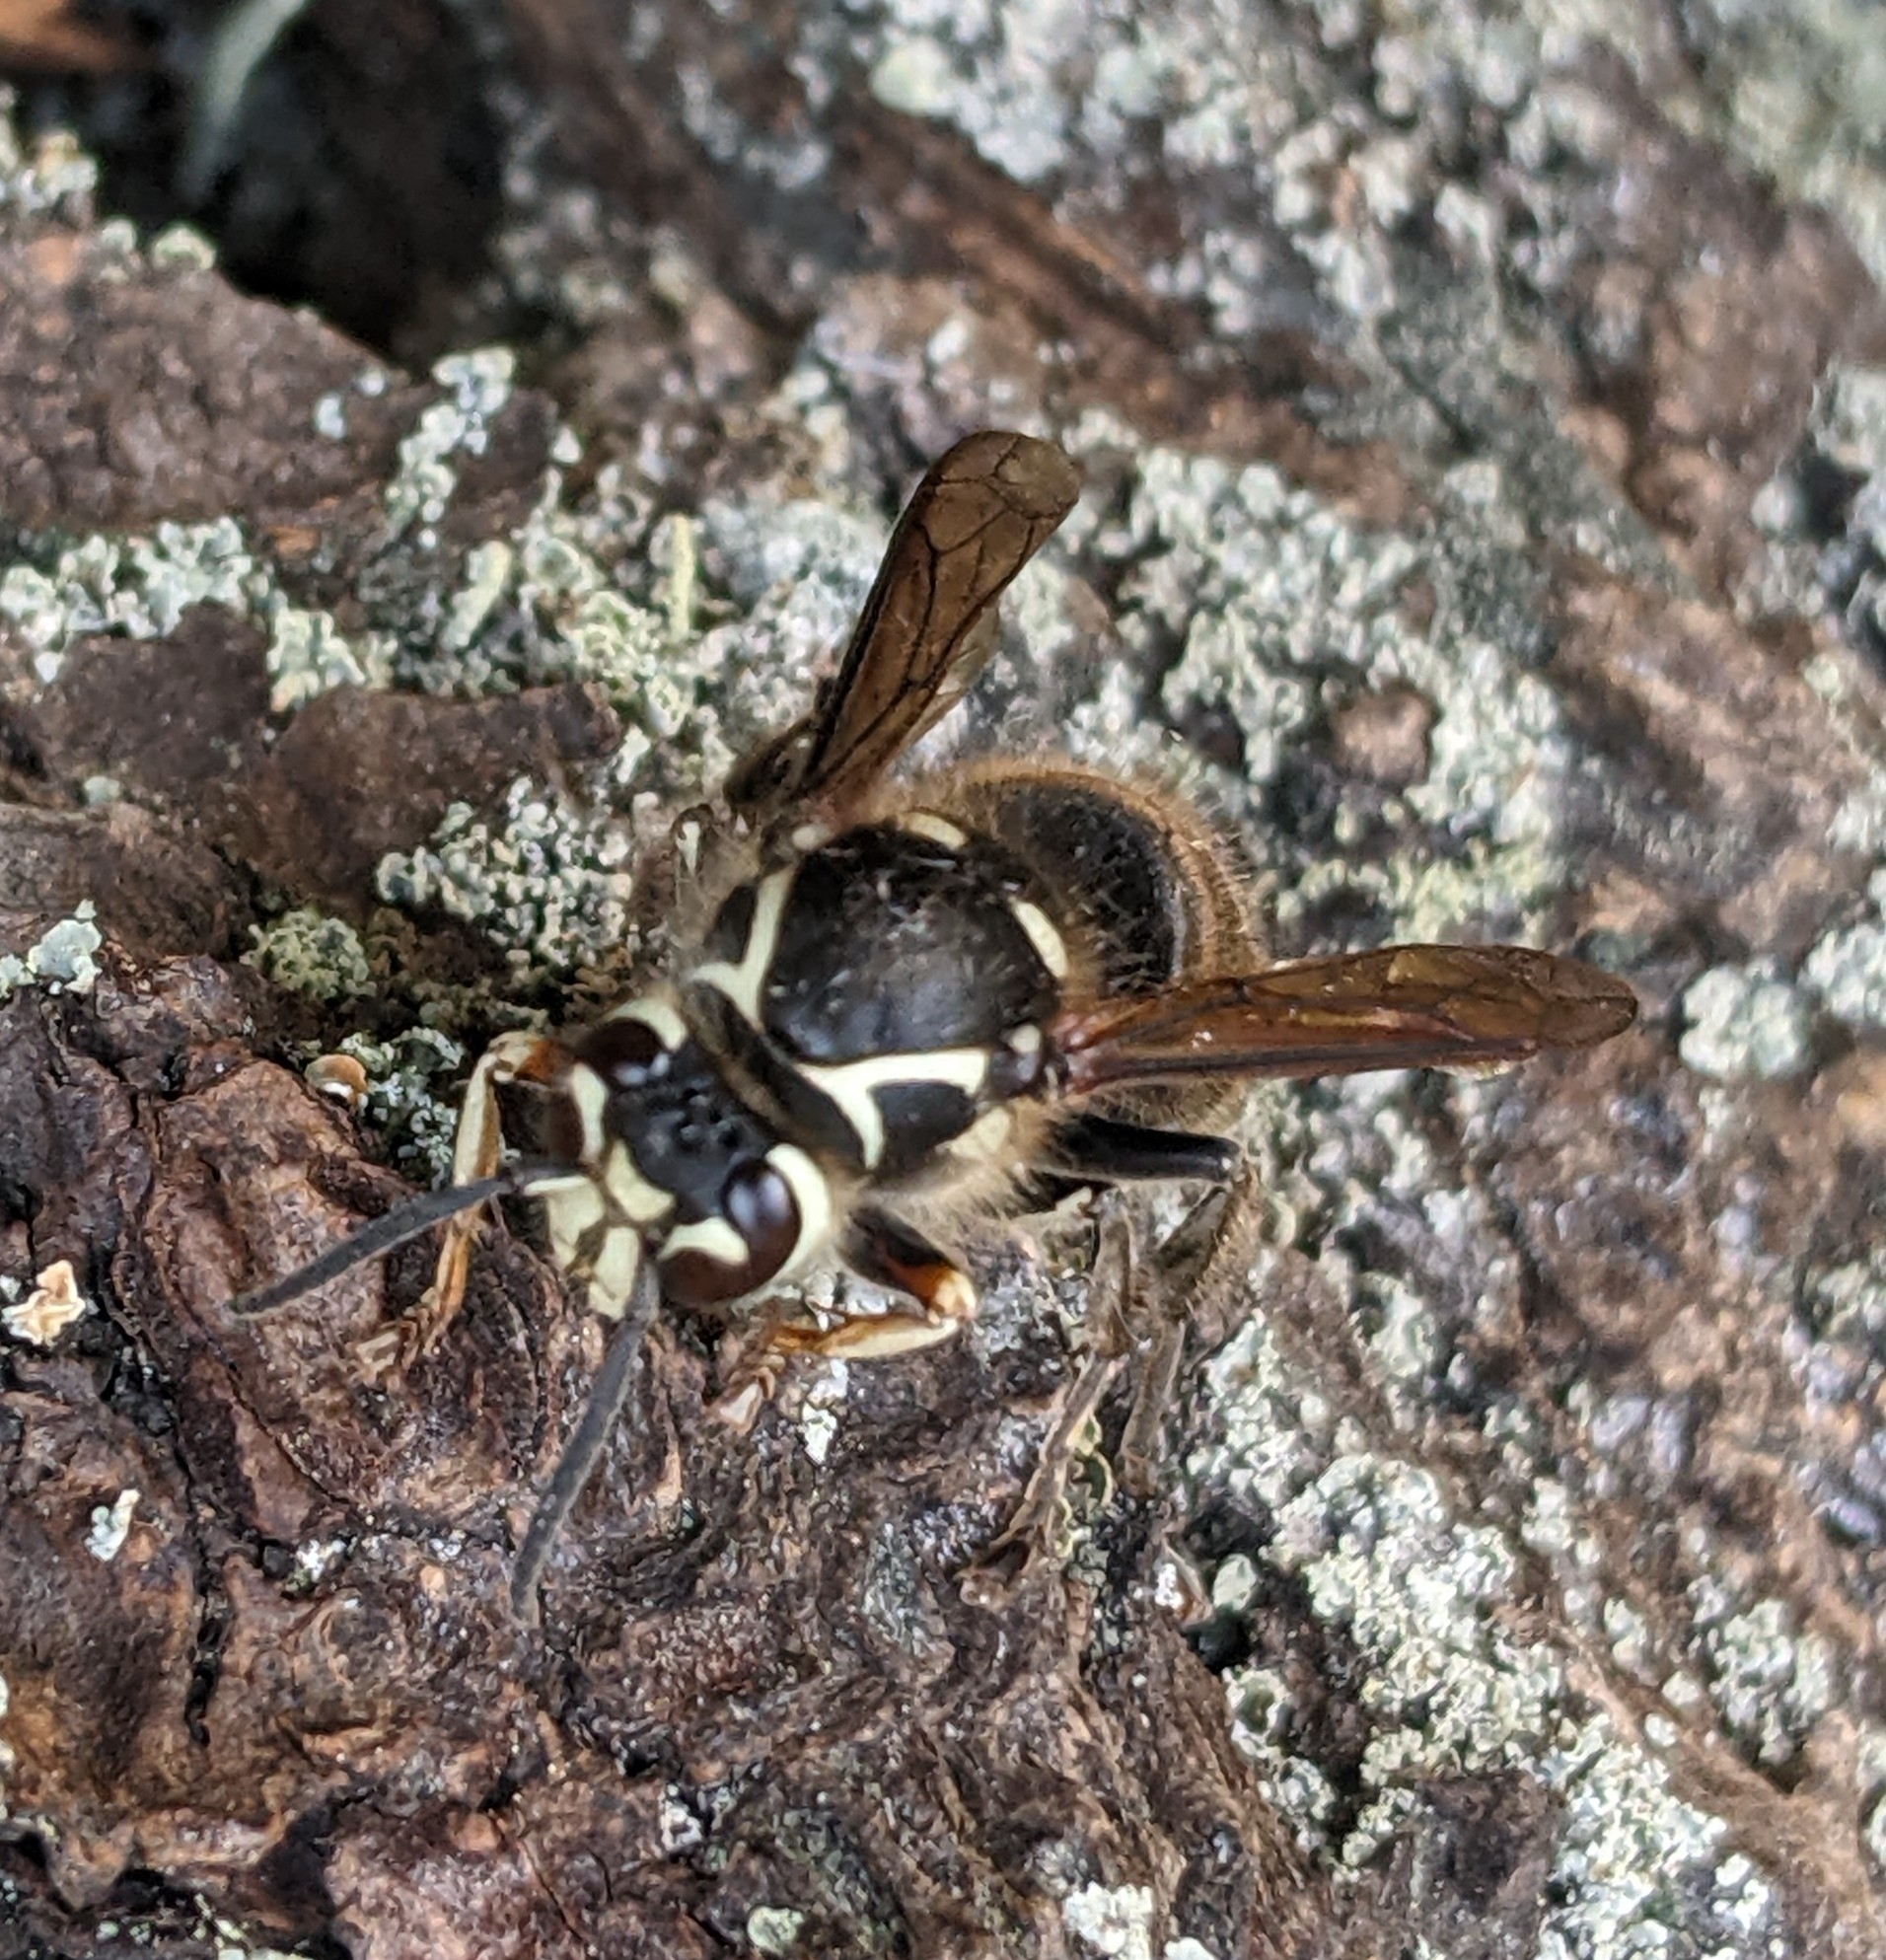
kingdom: Animalia
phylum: Arthropoda
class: Insecta
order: Hymenoptera
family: Vespidae
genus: Dolichovespula
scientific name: Dolichovespula maculata
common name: Bald-faced hornet
